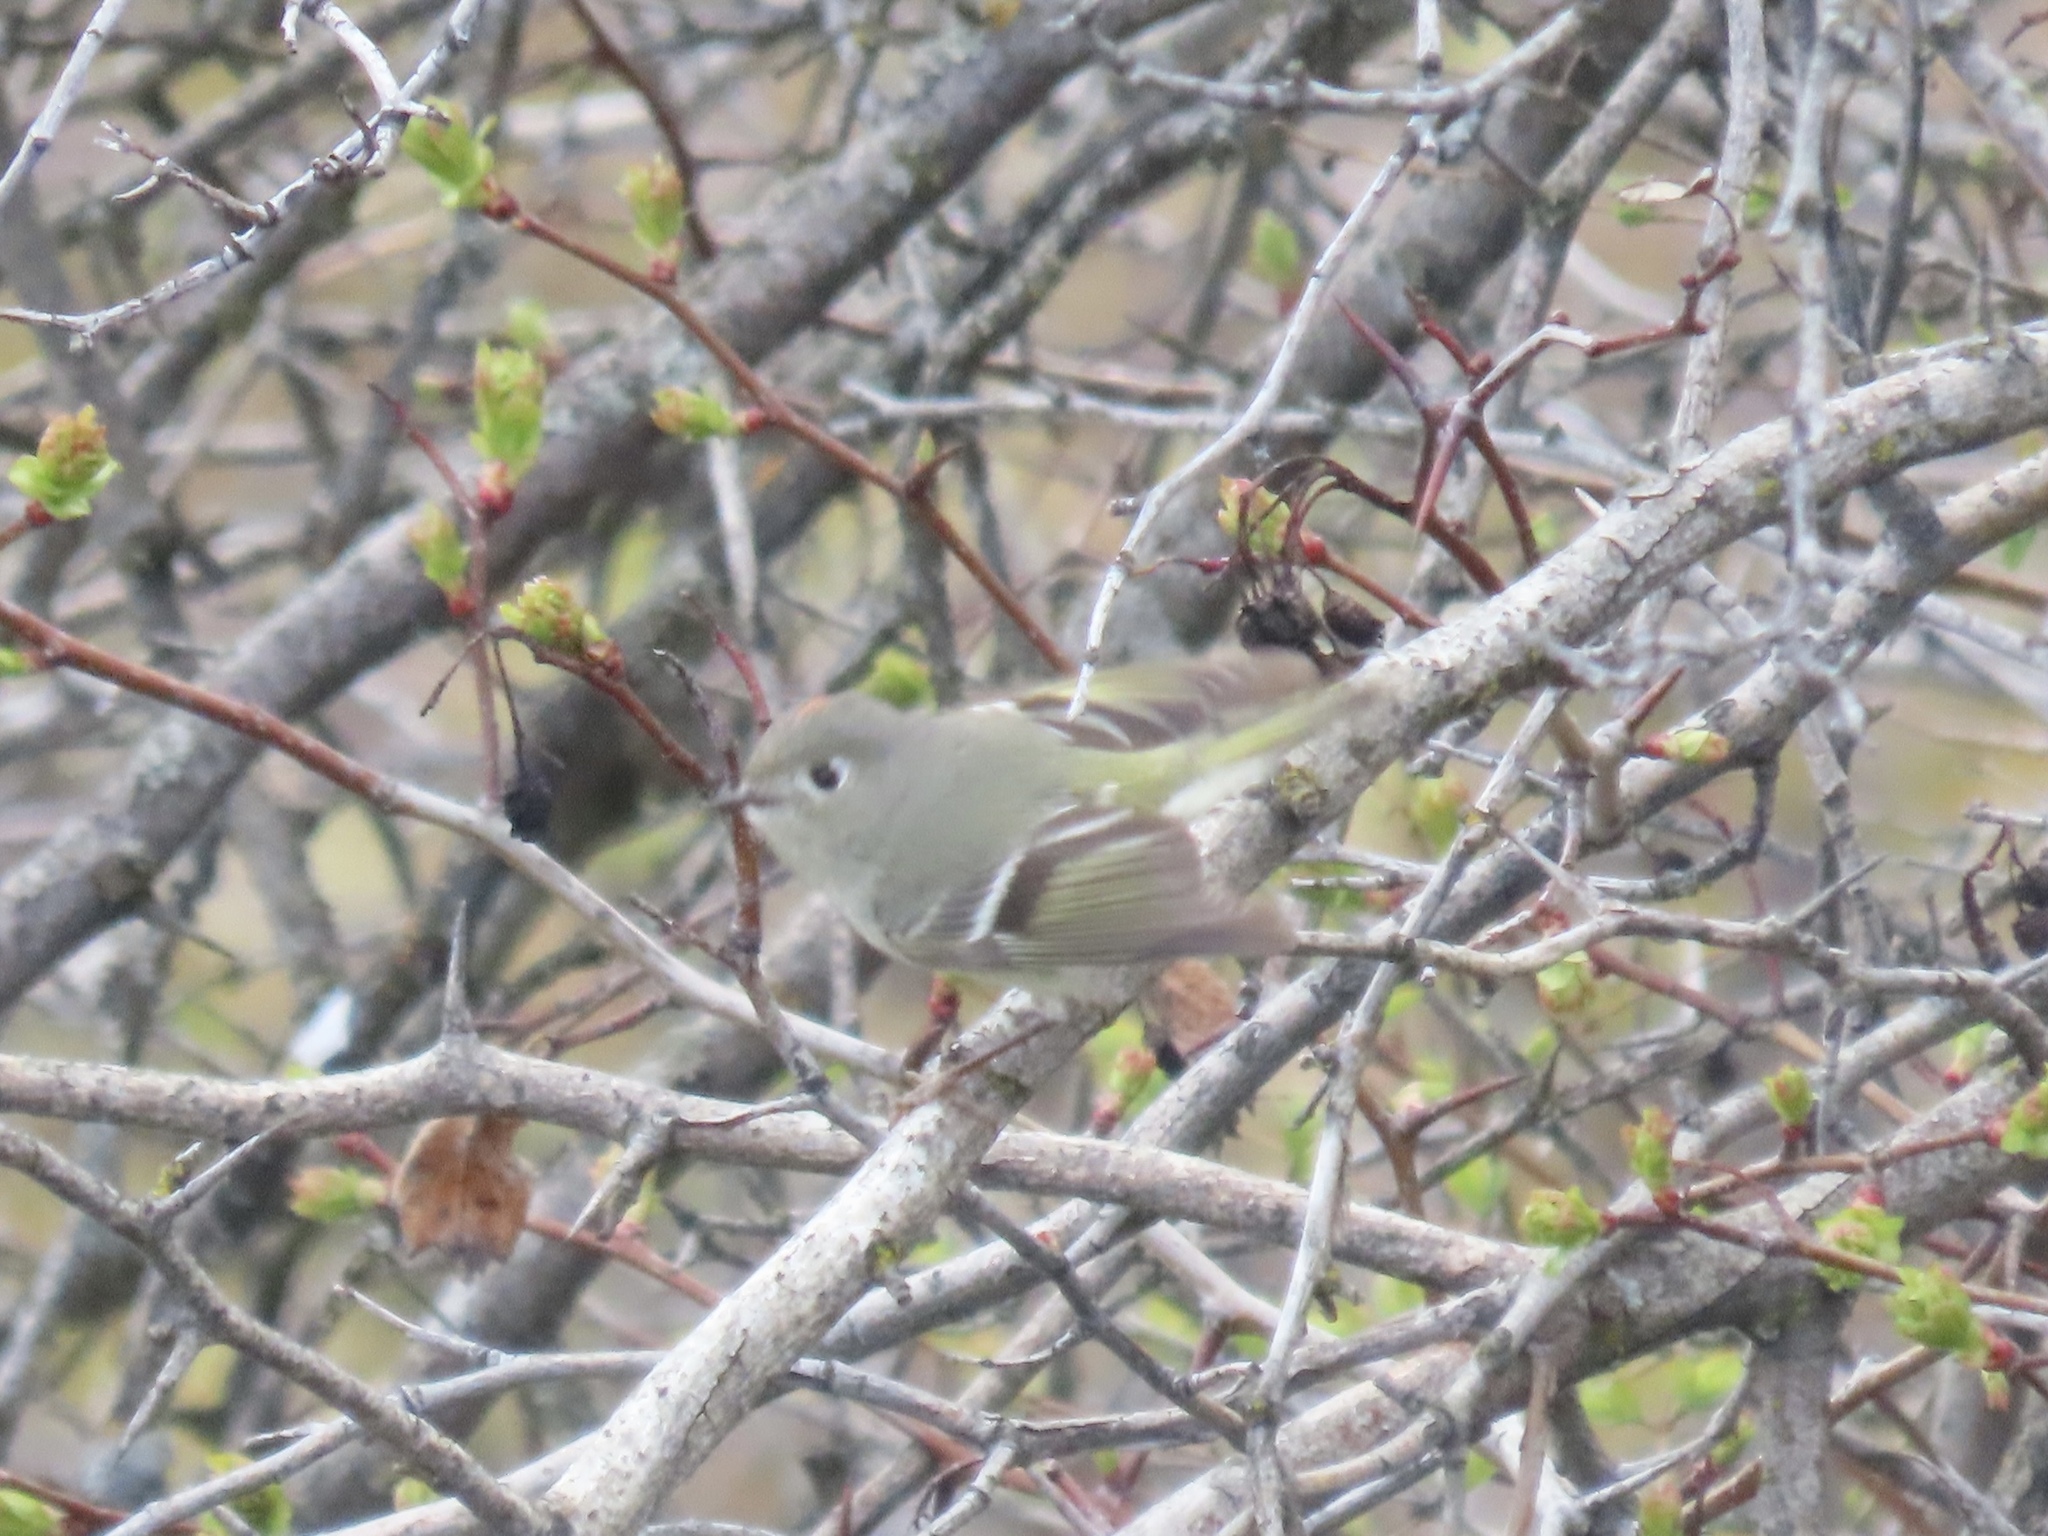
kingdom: Animalia
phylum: Chordata
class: Aves
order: Passeriformes
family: Regulidae
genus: Regulus
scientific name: Regulus calendula
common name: Ruby-crowned kinglet
